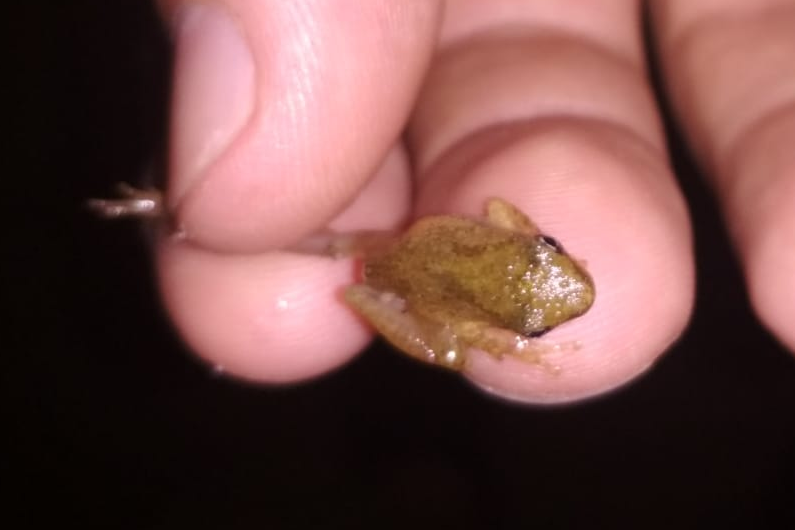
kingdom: Animalia
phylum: Chordata
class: Amphibia
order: Anura
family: Hylidae
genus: Dendropsophus
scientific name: Dendropsophus sanborni
